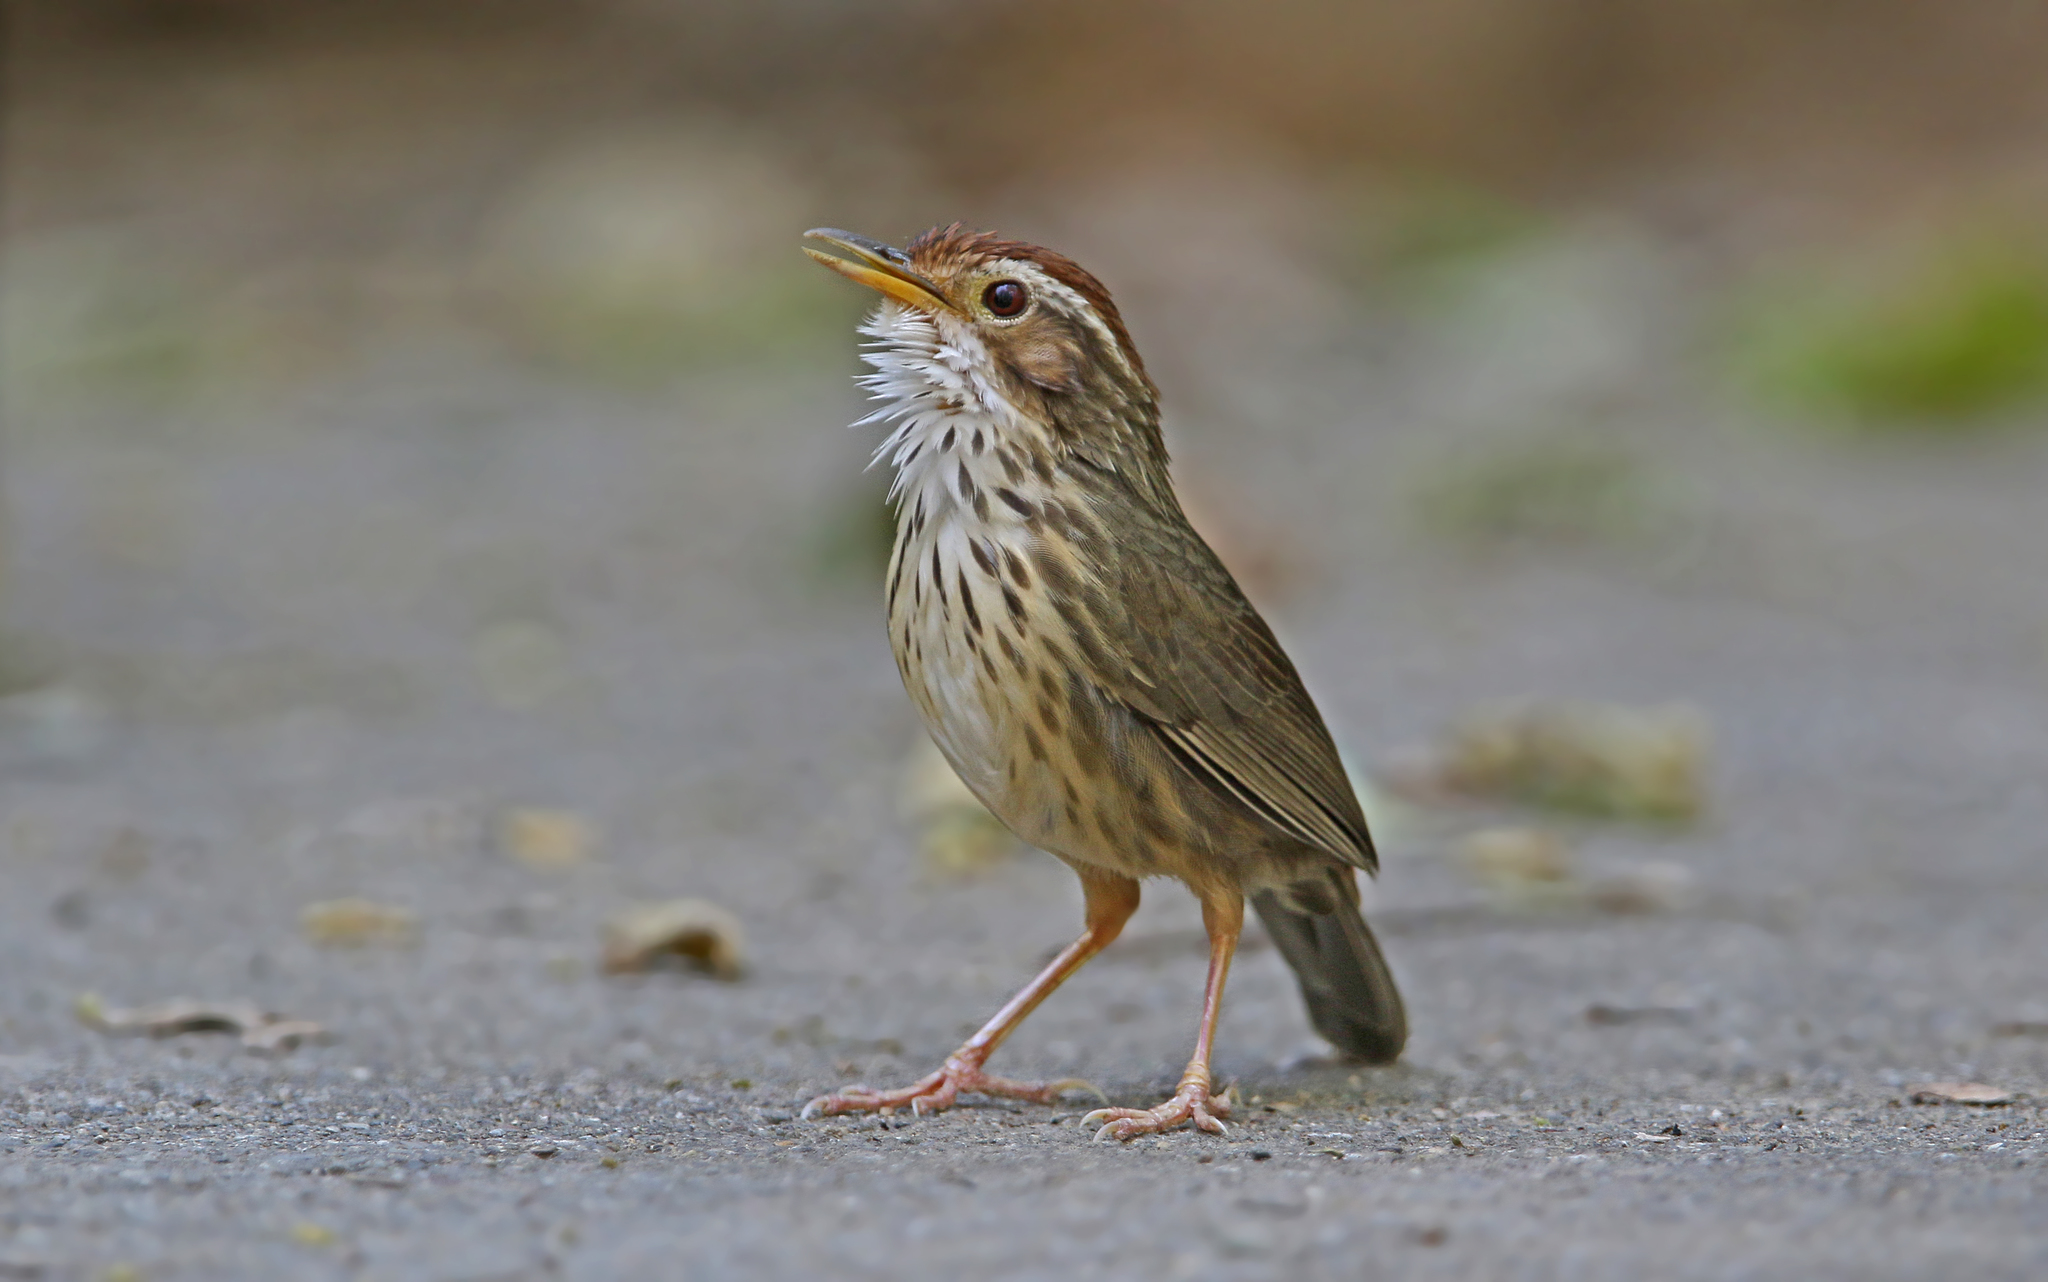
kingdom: Animalia
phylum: Chordata
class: Aves
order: Passeriformes
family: Pellorneidae
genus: Pellorneum
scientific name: Pellorneum ruficeps
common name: Puff-throated babbler
